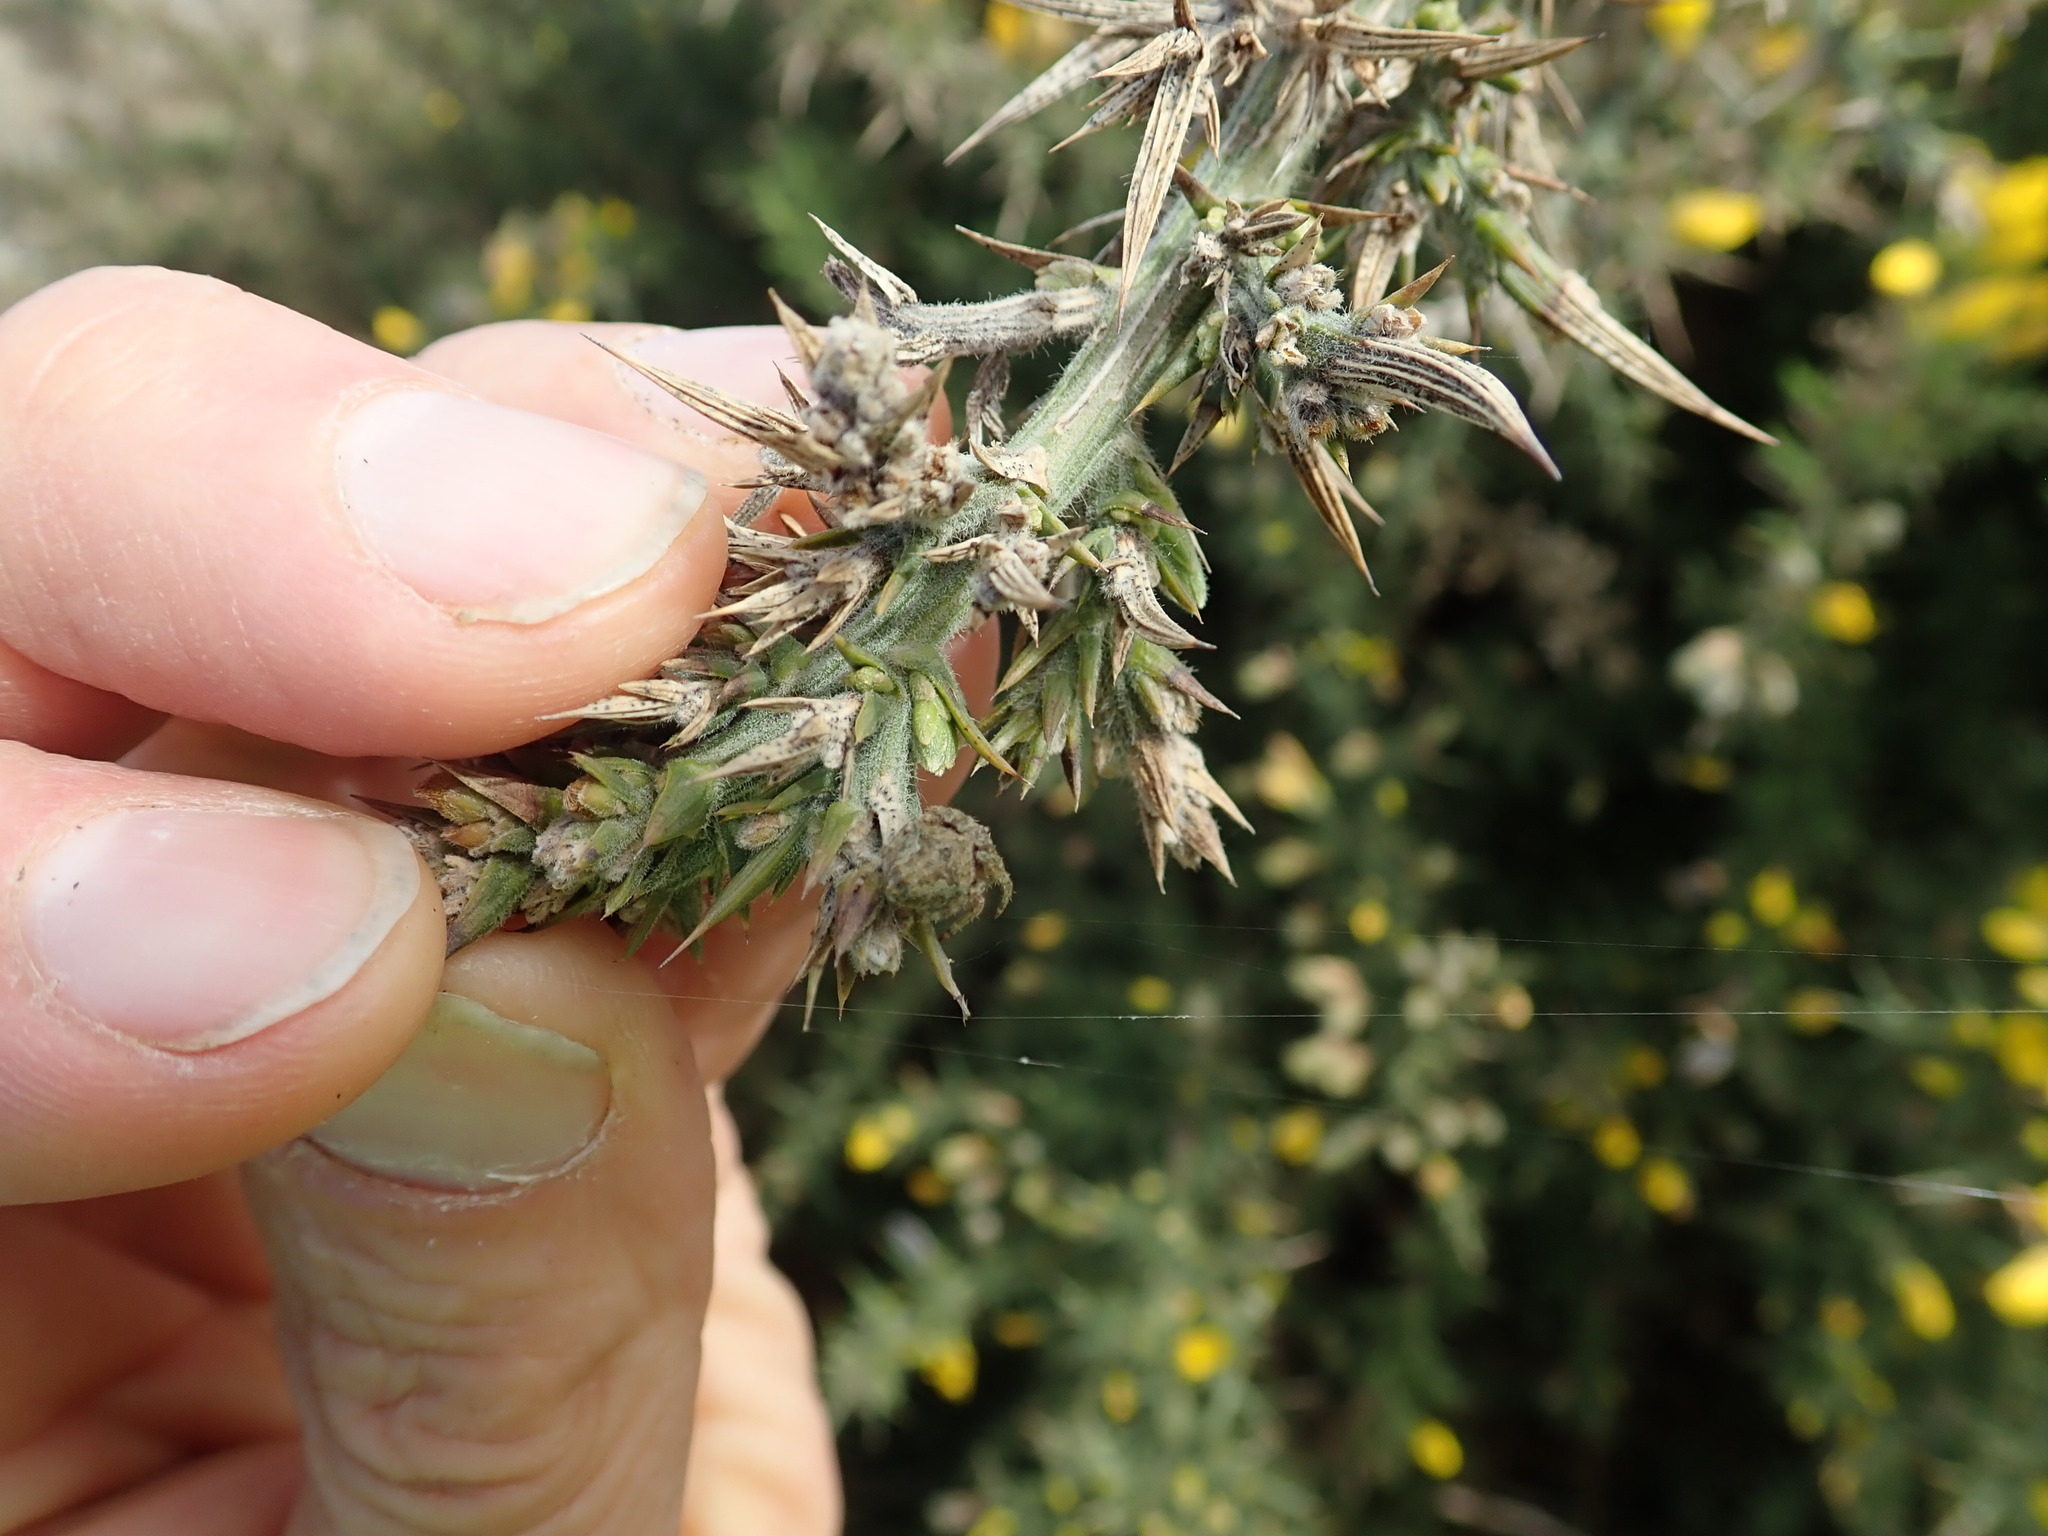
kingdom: Animalia
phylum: Arthropoda
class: Arachnida
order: Araneae
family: Araneidae
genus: Eriophora
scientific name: Eriophora pustulosa
